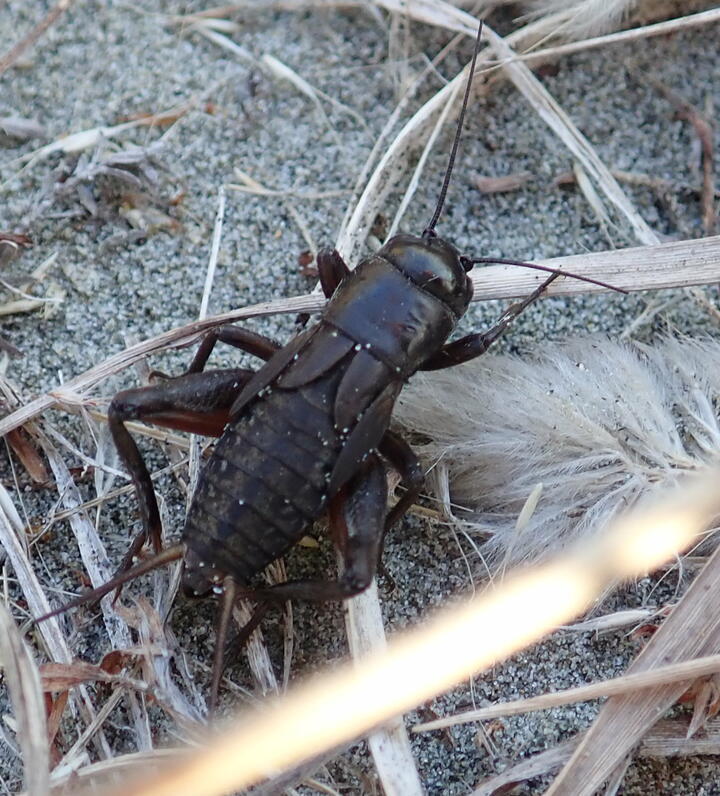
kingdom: Animalia
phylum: Arthropoda
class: Insecta
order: Orthoptera
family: Gryllidae
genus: Teleogryllus
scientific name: Teleogryllus commodus
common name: Black field cricket
